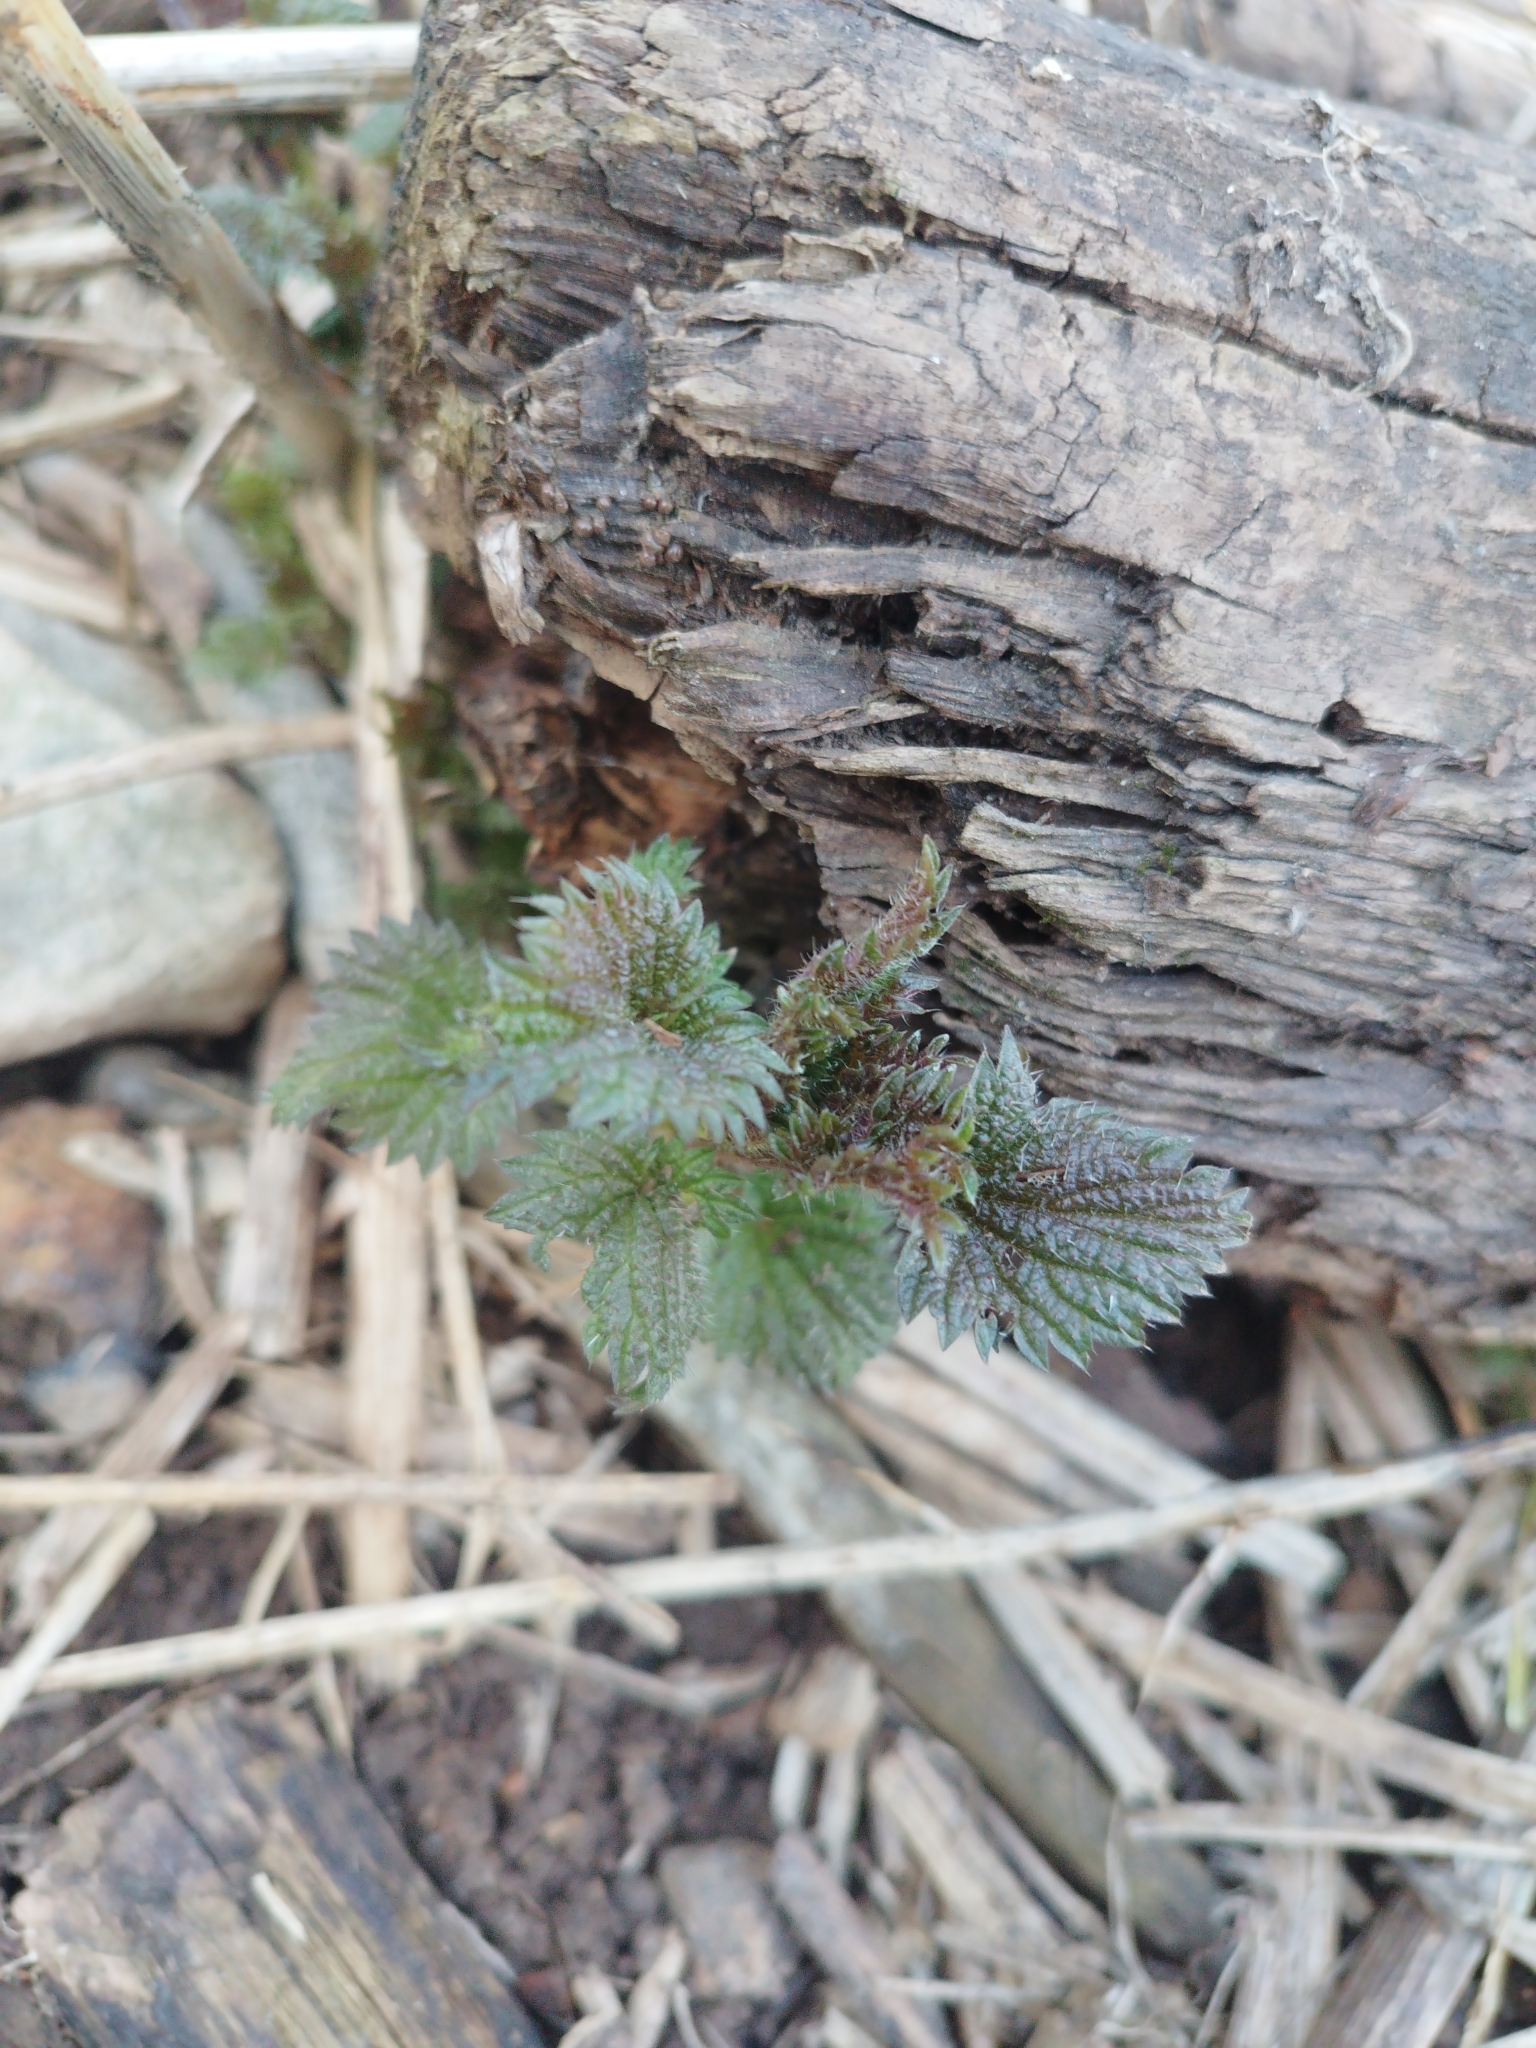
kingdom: Plantae
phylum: Tracheophyta
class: Magnoliopsida
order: Rosales
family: Urticaceae
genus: Urtica
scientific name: Urtica dioica
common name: Common nettle
